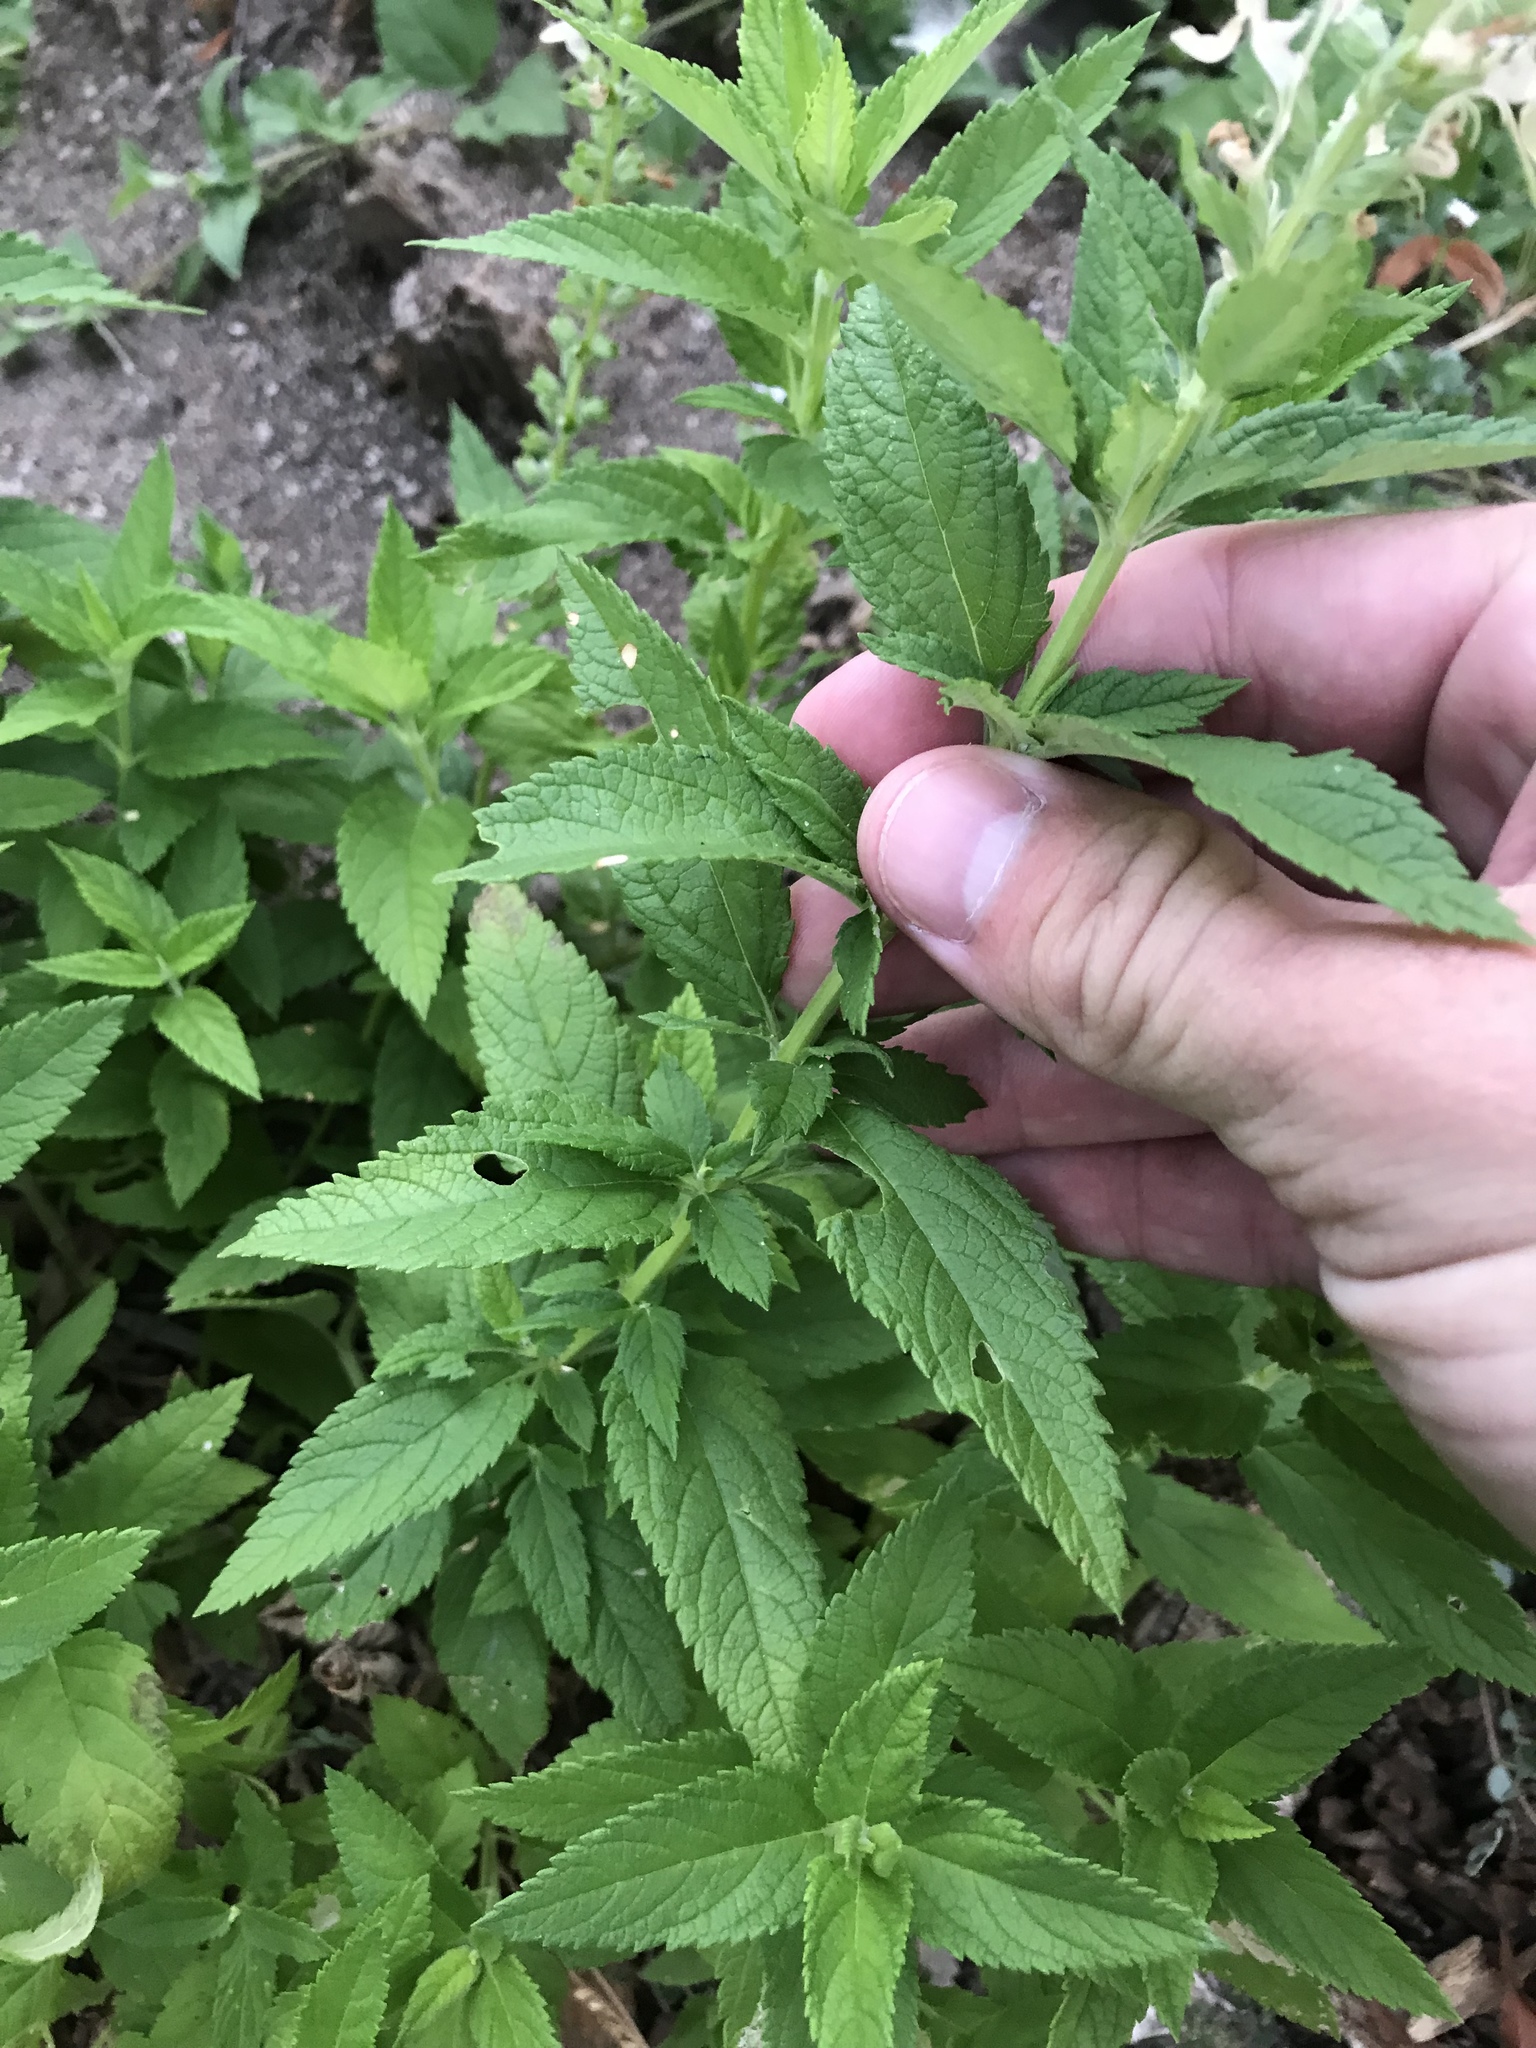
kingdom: Plantae
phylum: Tracheophyta
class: Magnoliopsida
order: Lamiales
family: Lamiaceae
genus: Teucrium
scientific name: Teucrium canadense
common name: American germander
